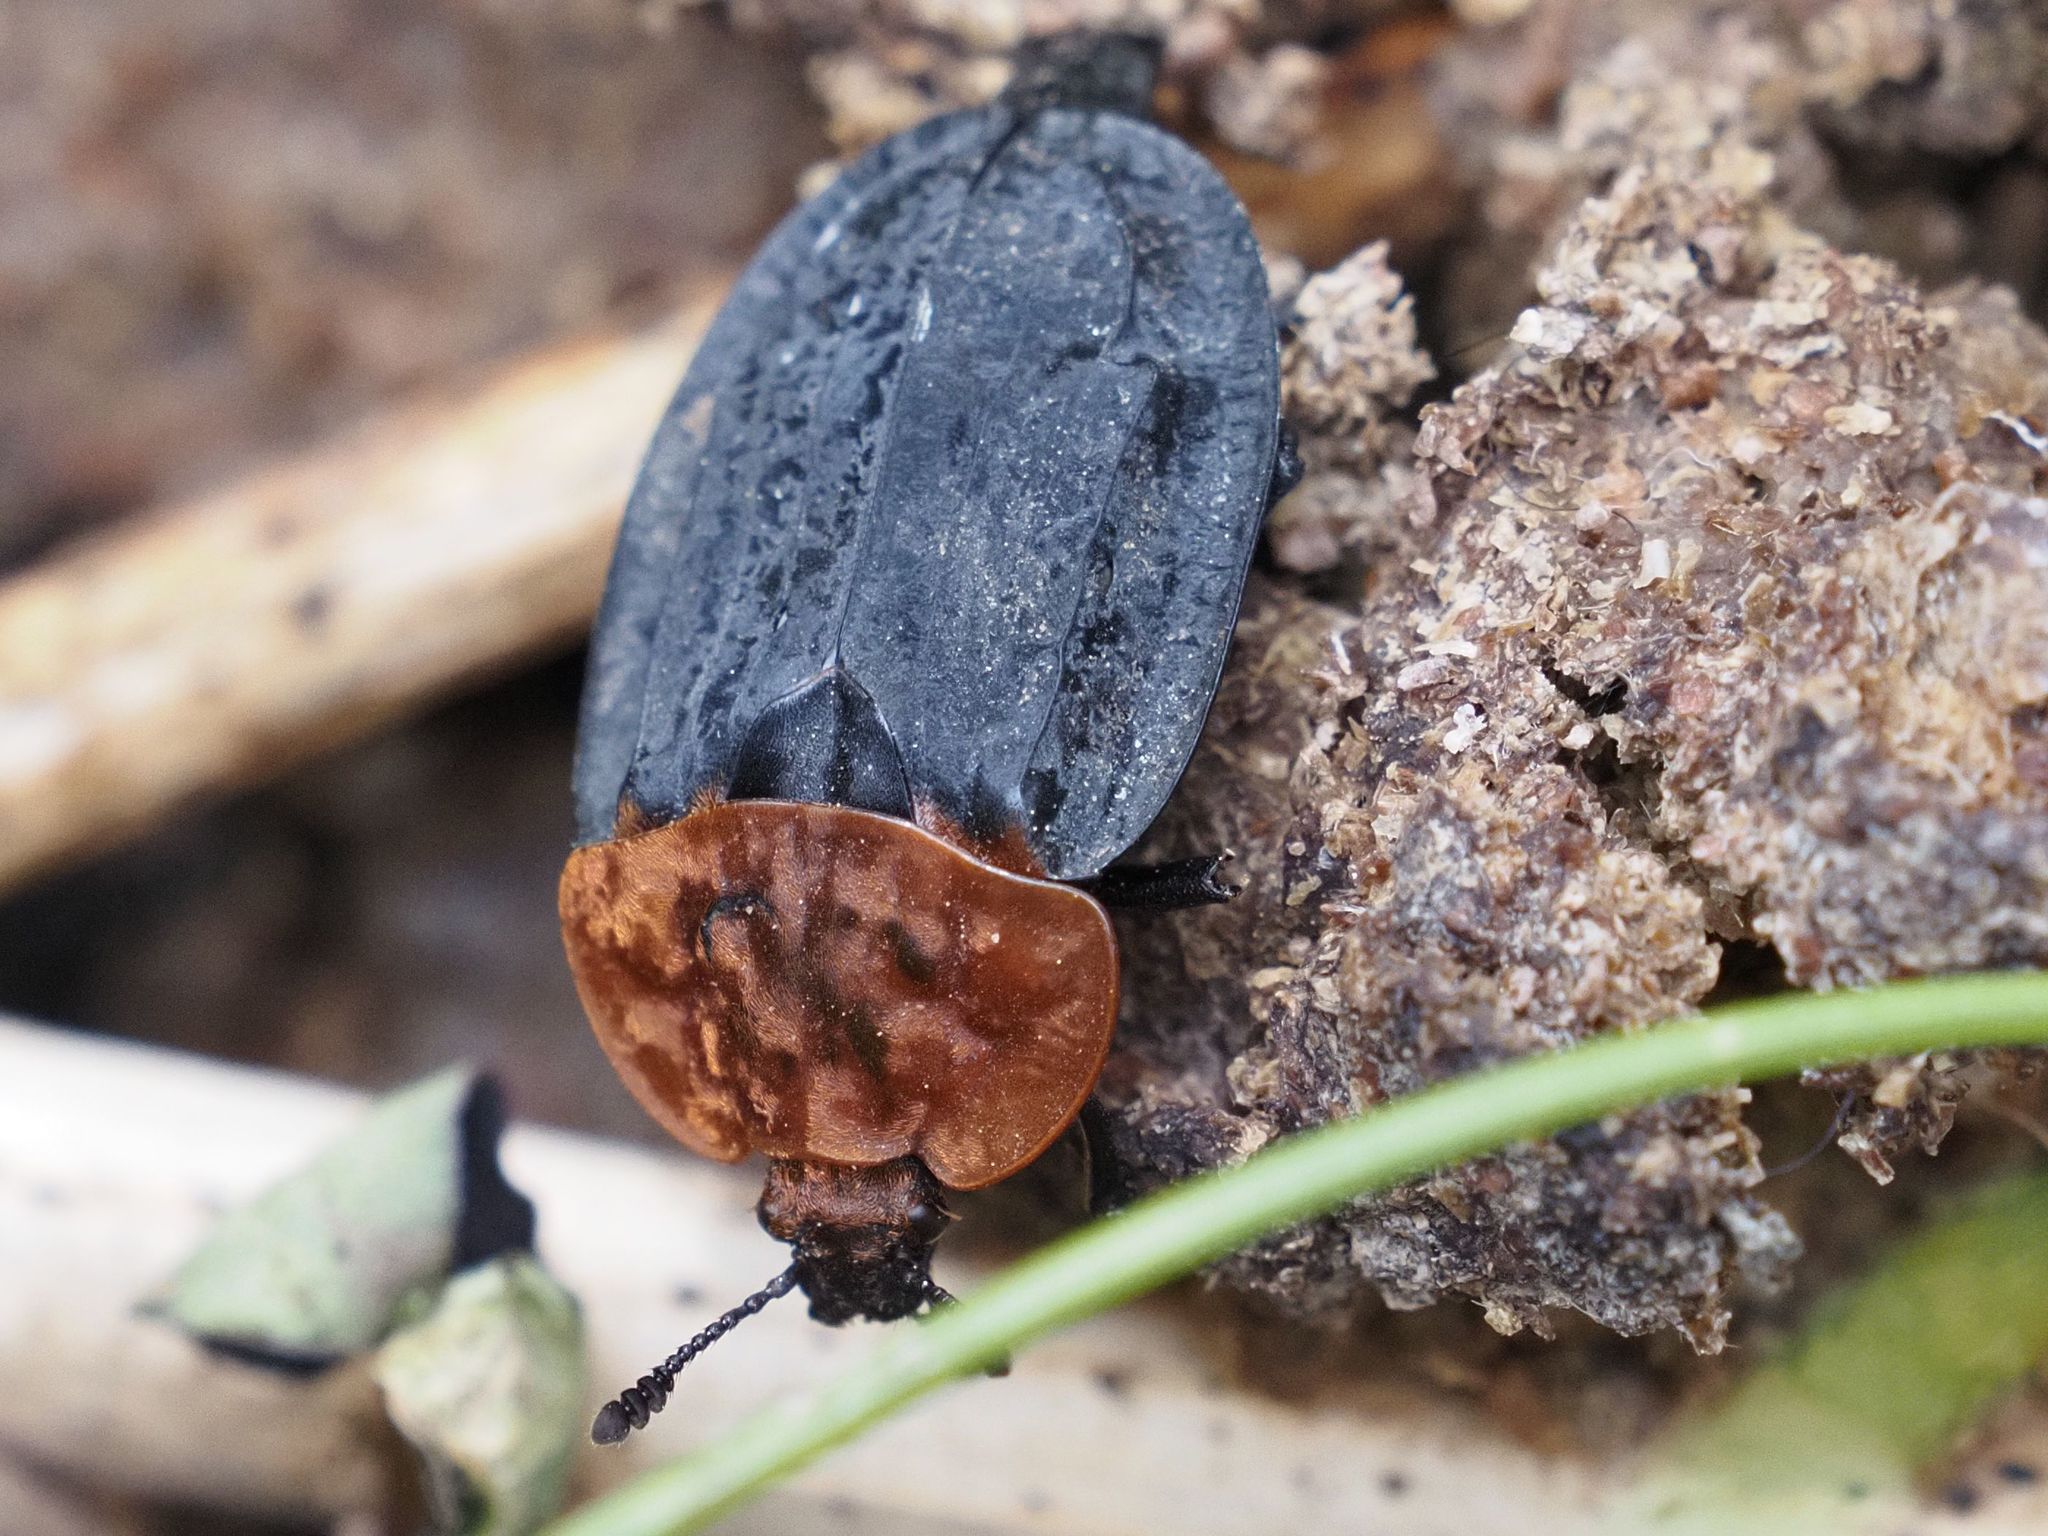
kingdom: Animalia
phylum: Arthropoda
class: Insecta
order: Coleoptera
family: Staphylinidae
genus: Oiceoptoma
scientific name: Oiceoptoma thoracicum
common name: Red-breasted carrion beetle
